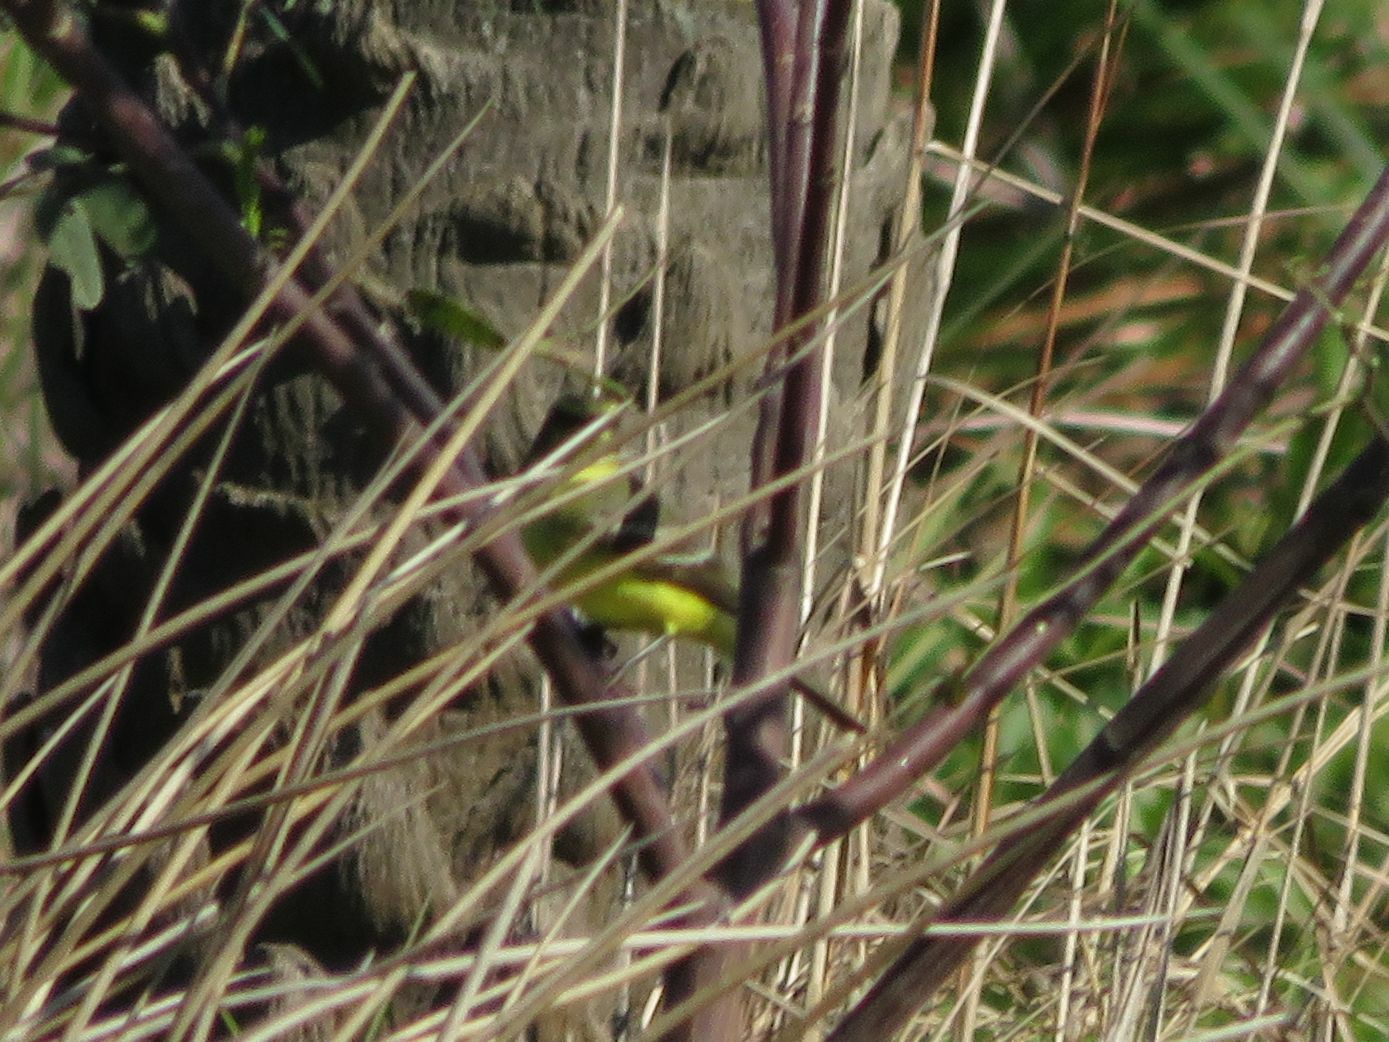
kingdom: Animalia
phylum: Chordata
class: Aves
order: Passeriformes
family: Tyrannidae
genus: Satrapa
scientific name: Satrapa icterophrys
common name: Yellow-browed tyrant
